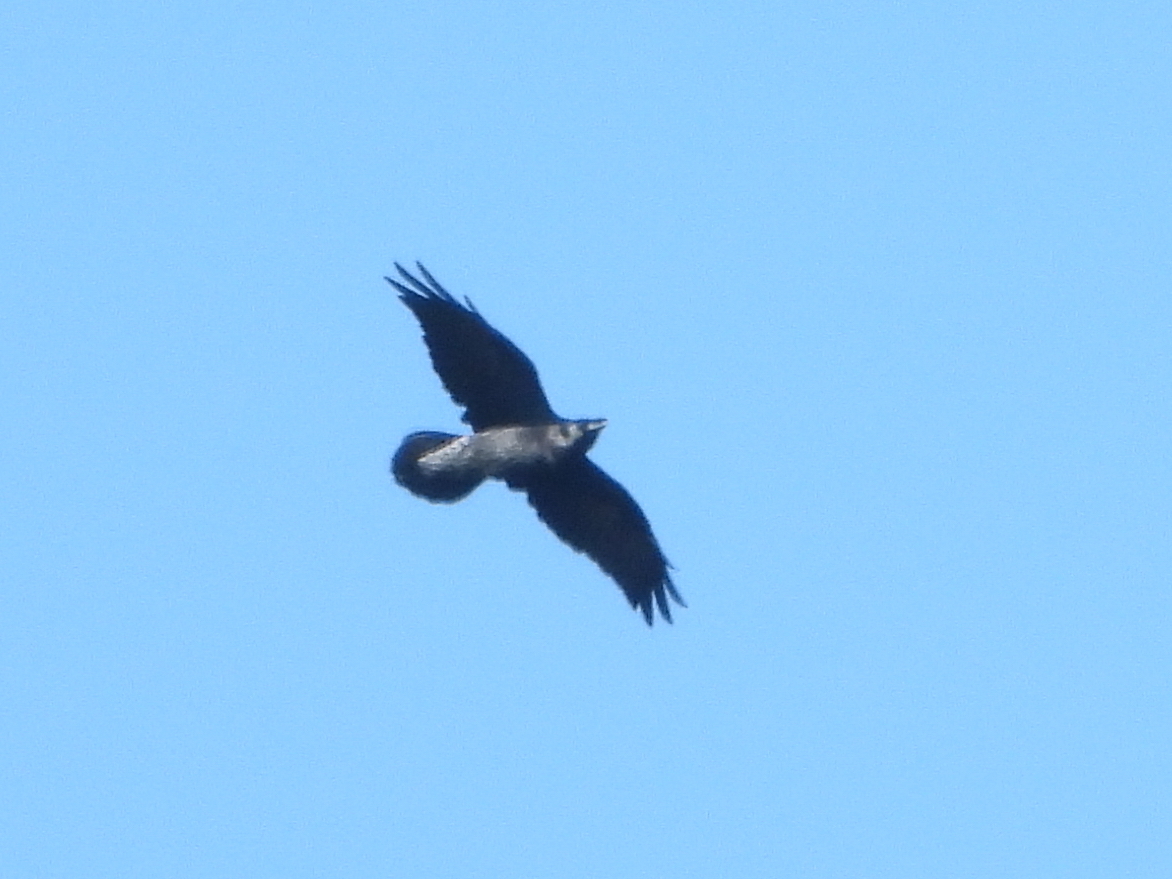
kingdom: Animalia
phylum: Chordata
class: Aves
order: Passeriformes
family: Corvidae
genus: Corvus
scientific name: Corvus corax
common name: Common raven
